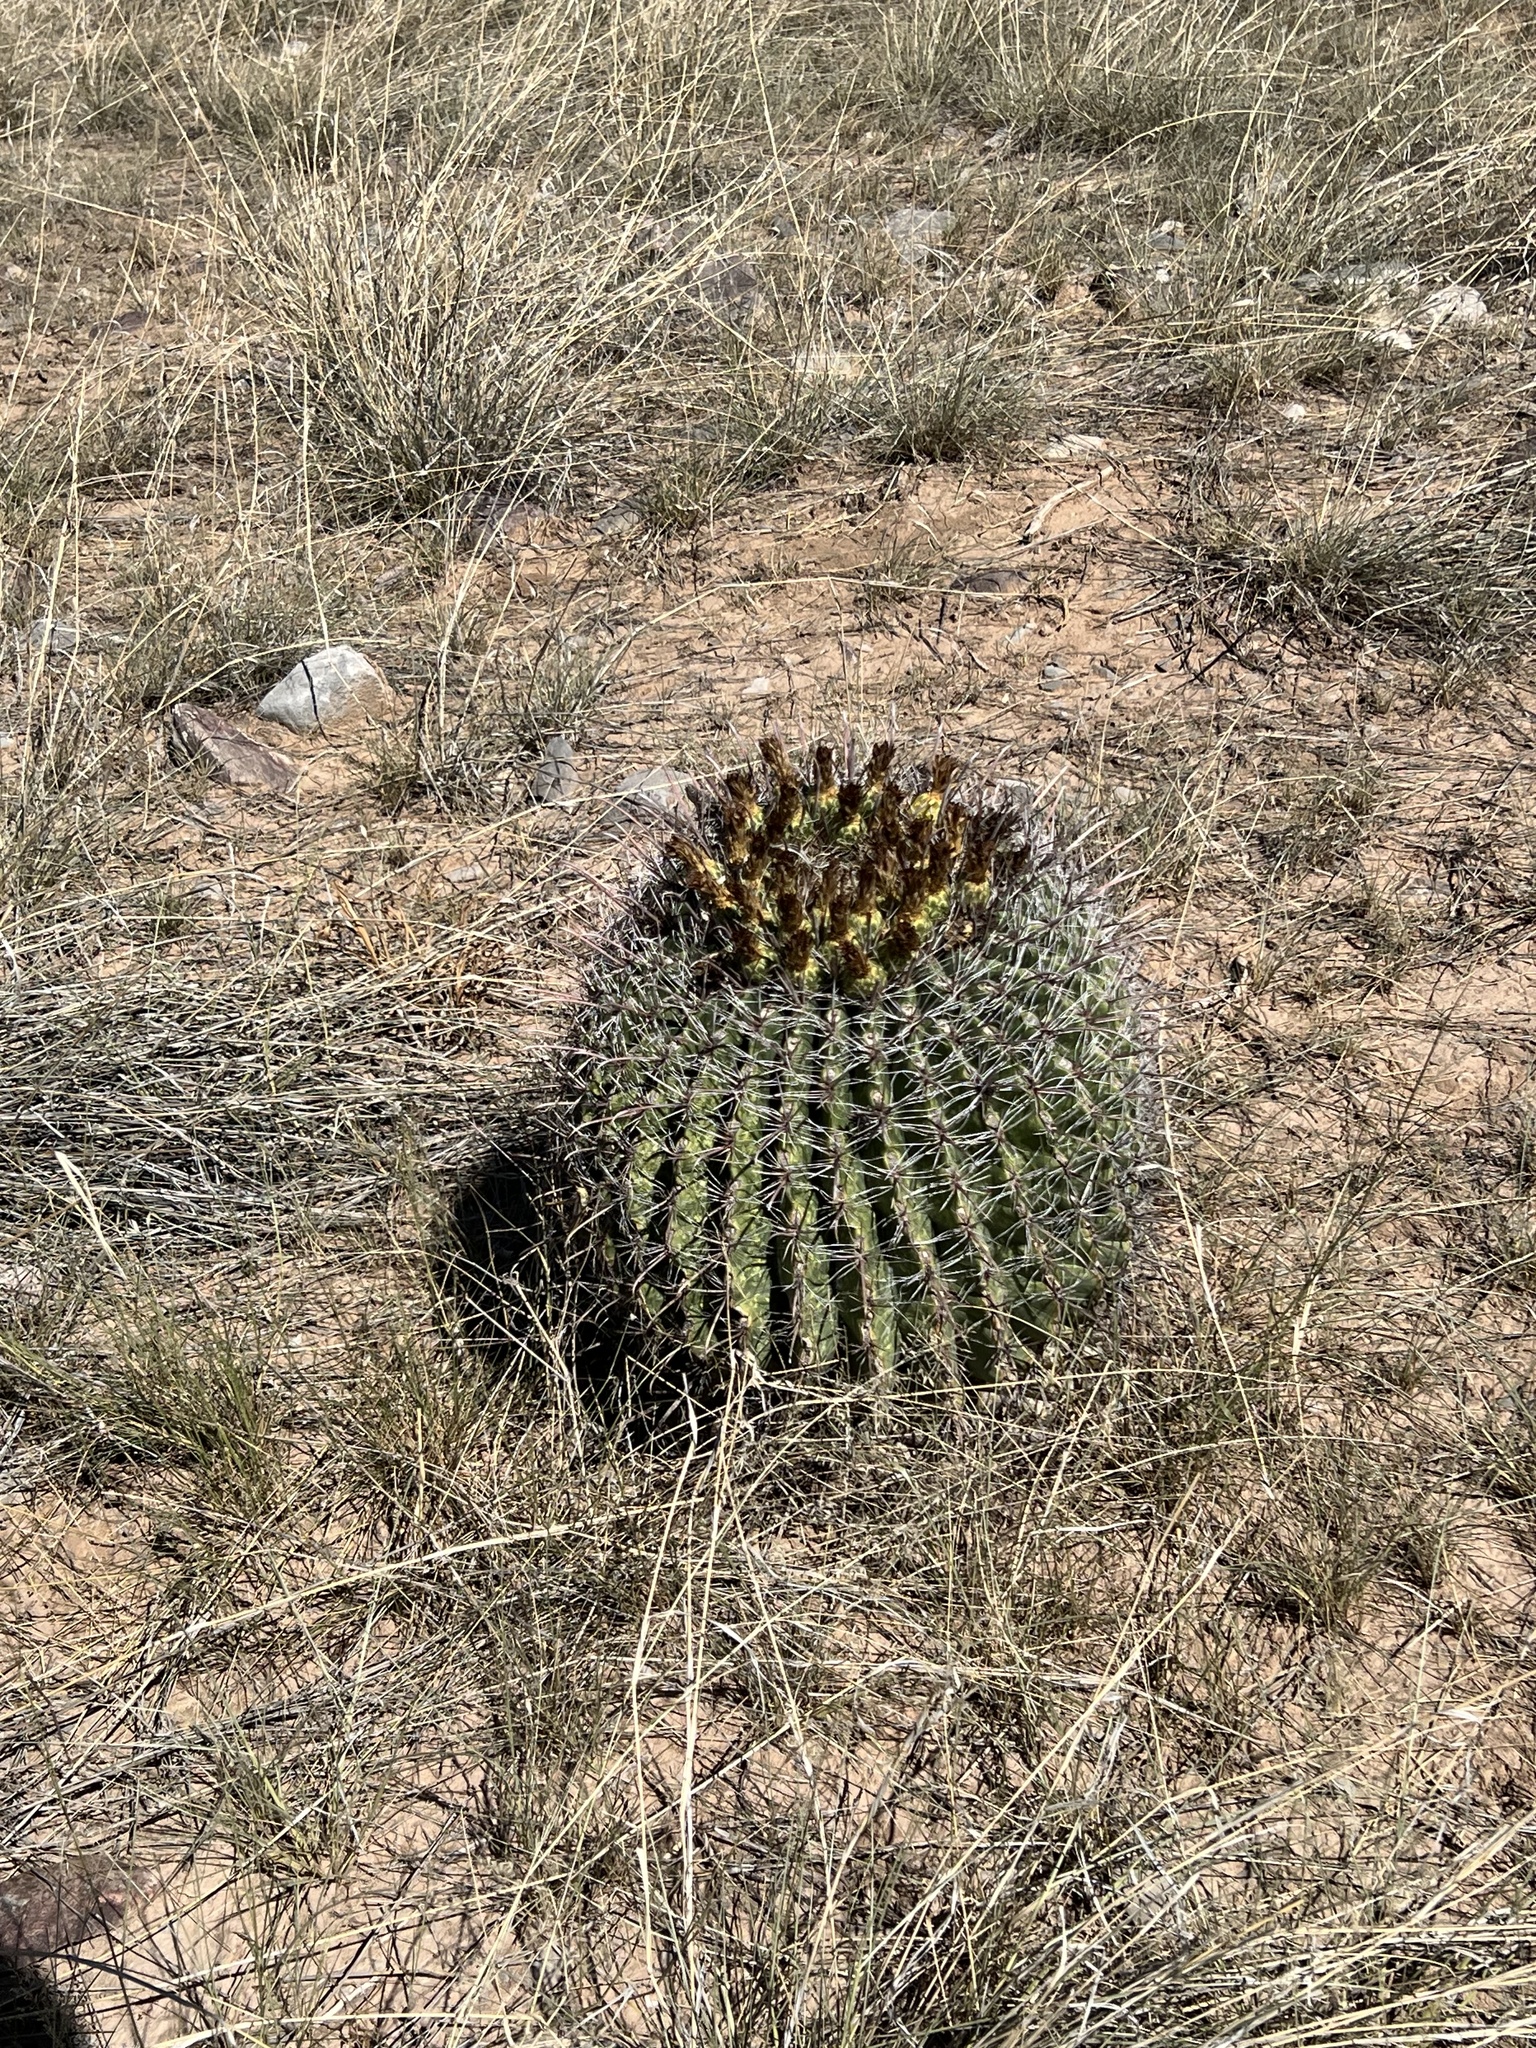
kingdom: Plantae
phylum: Tracheophyta
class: Magnoliopsida
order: Caryophyllales
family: Cactaceae
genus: Ferocactus
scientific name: Ferocactus wislizeni
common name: Candy barrel cactus
